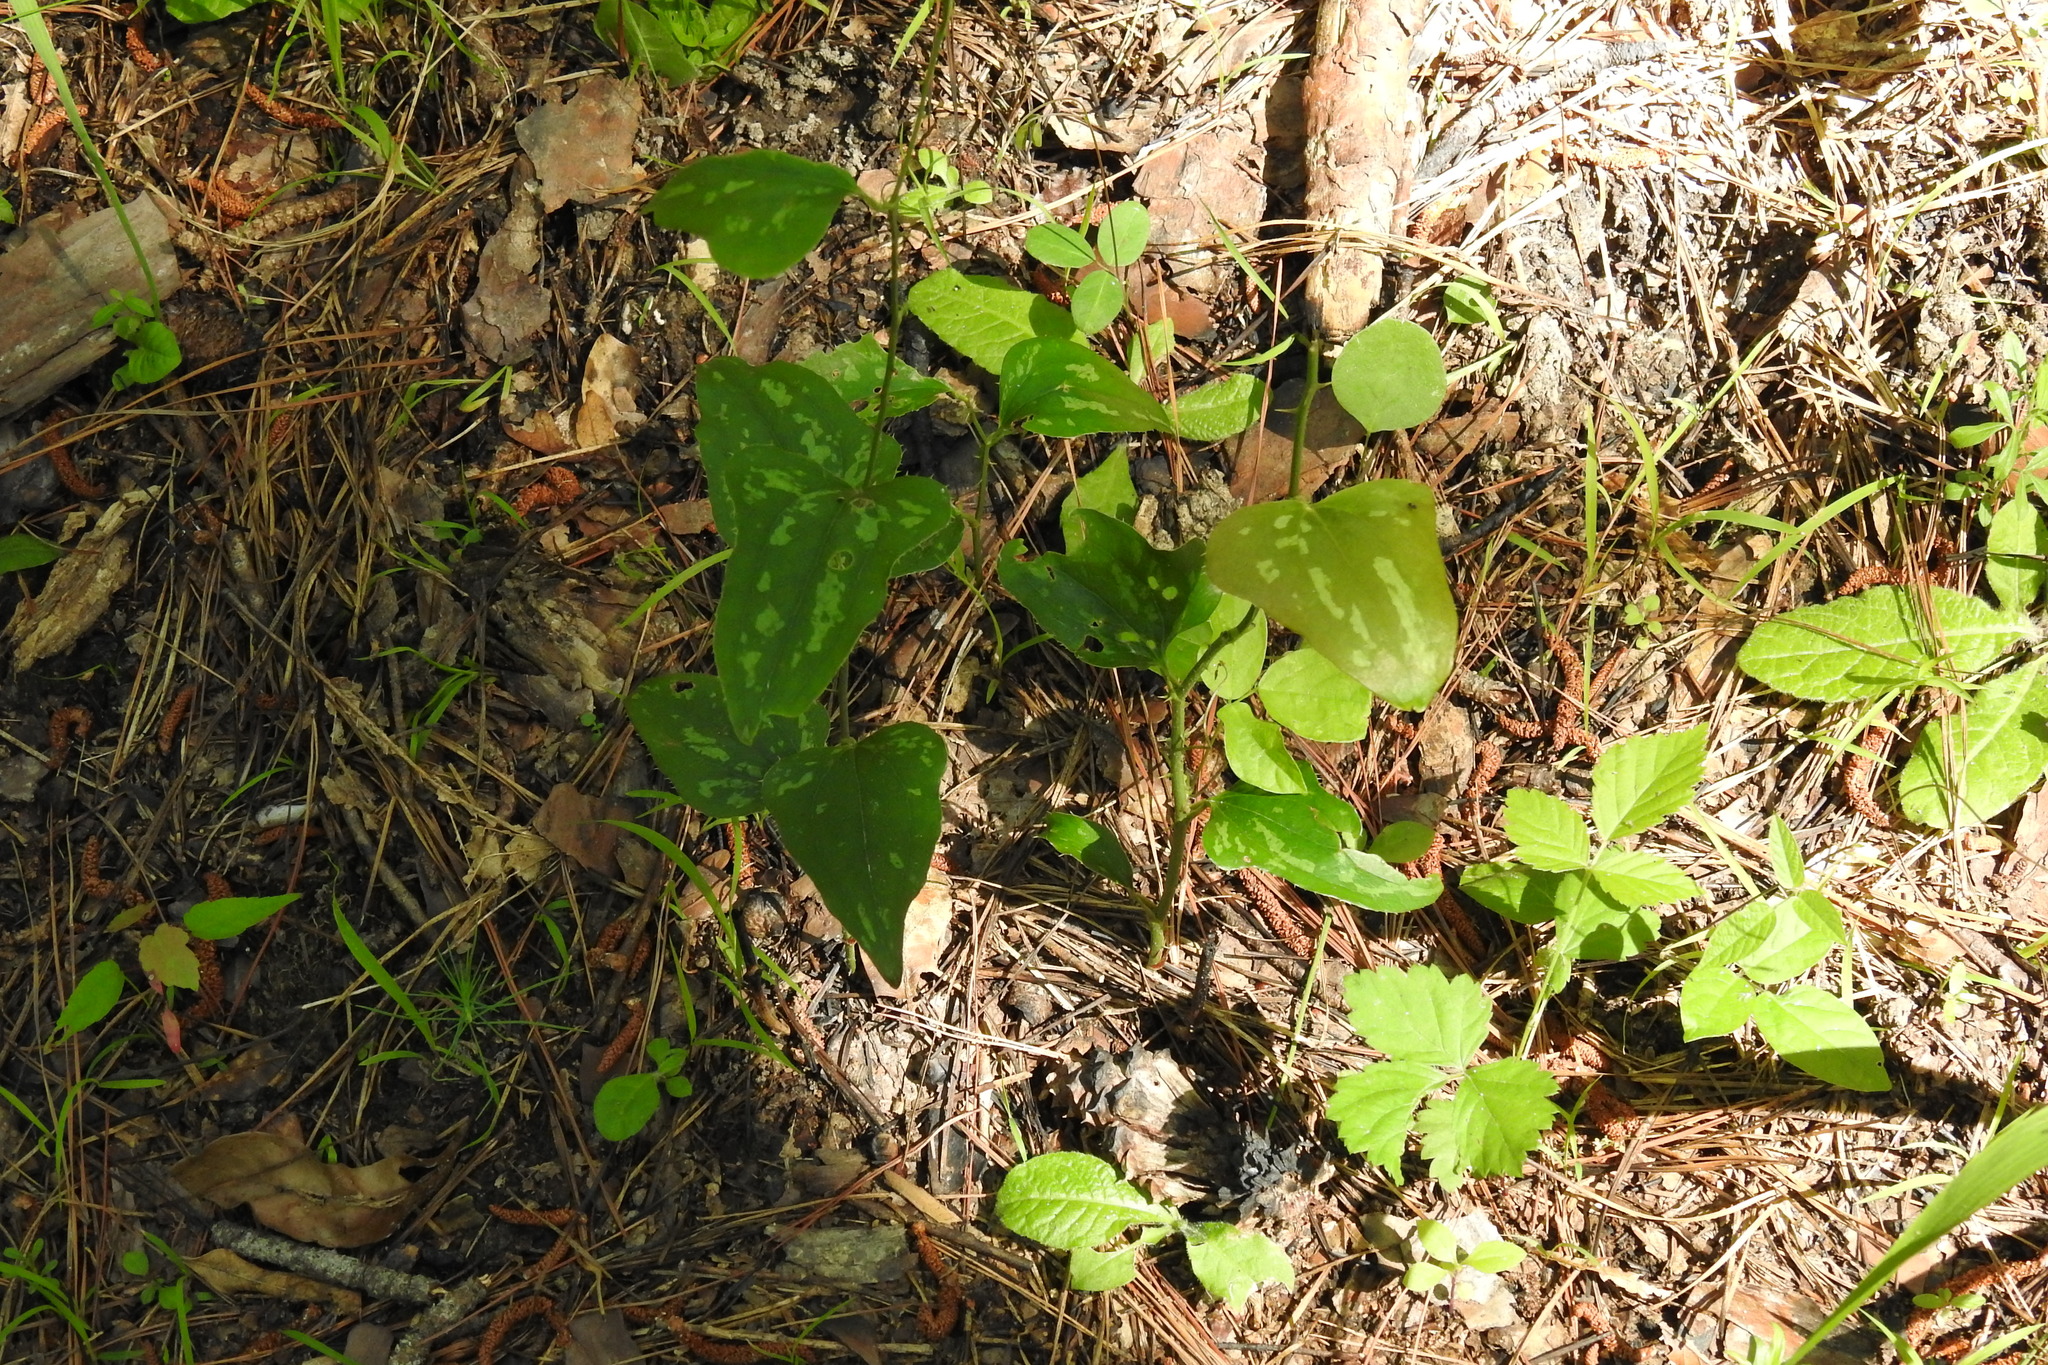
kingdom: Plantae
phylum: Tracheophyta
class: Liliopsida
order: Liliales
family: Smilacaceae
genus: Smilax
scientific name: Smilax bona-nox
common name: Catbrier
